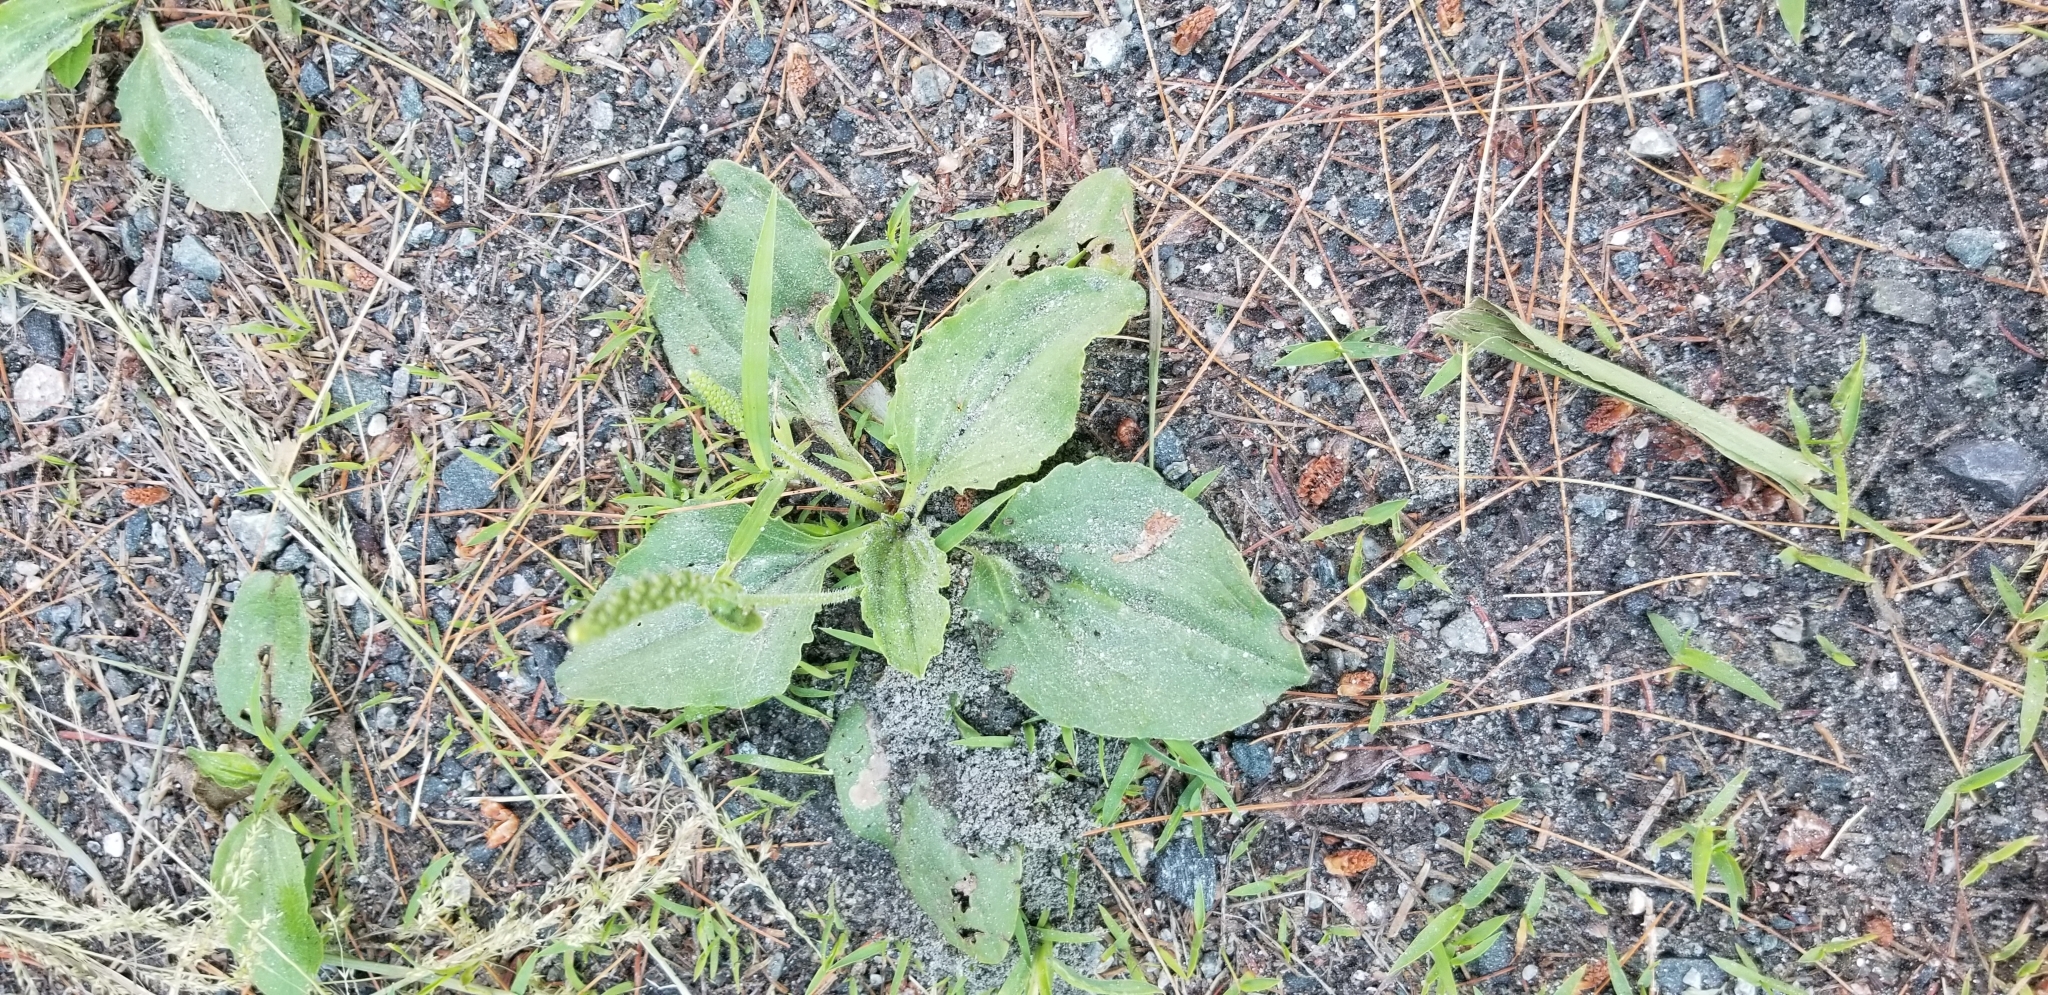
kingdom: Plantae
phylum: Tracheophyta
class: Magnoliopsida
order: Lamiales
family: Plantaginaceae
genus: Plantago
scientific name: Plantago major
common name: Common plantain
